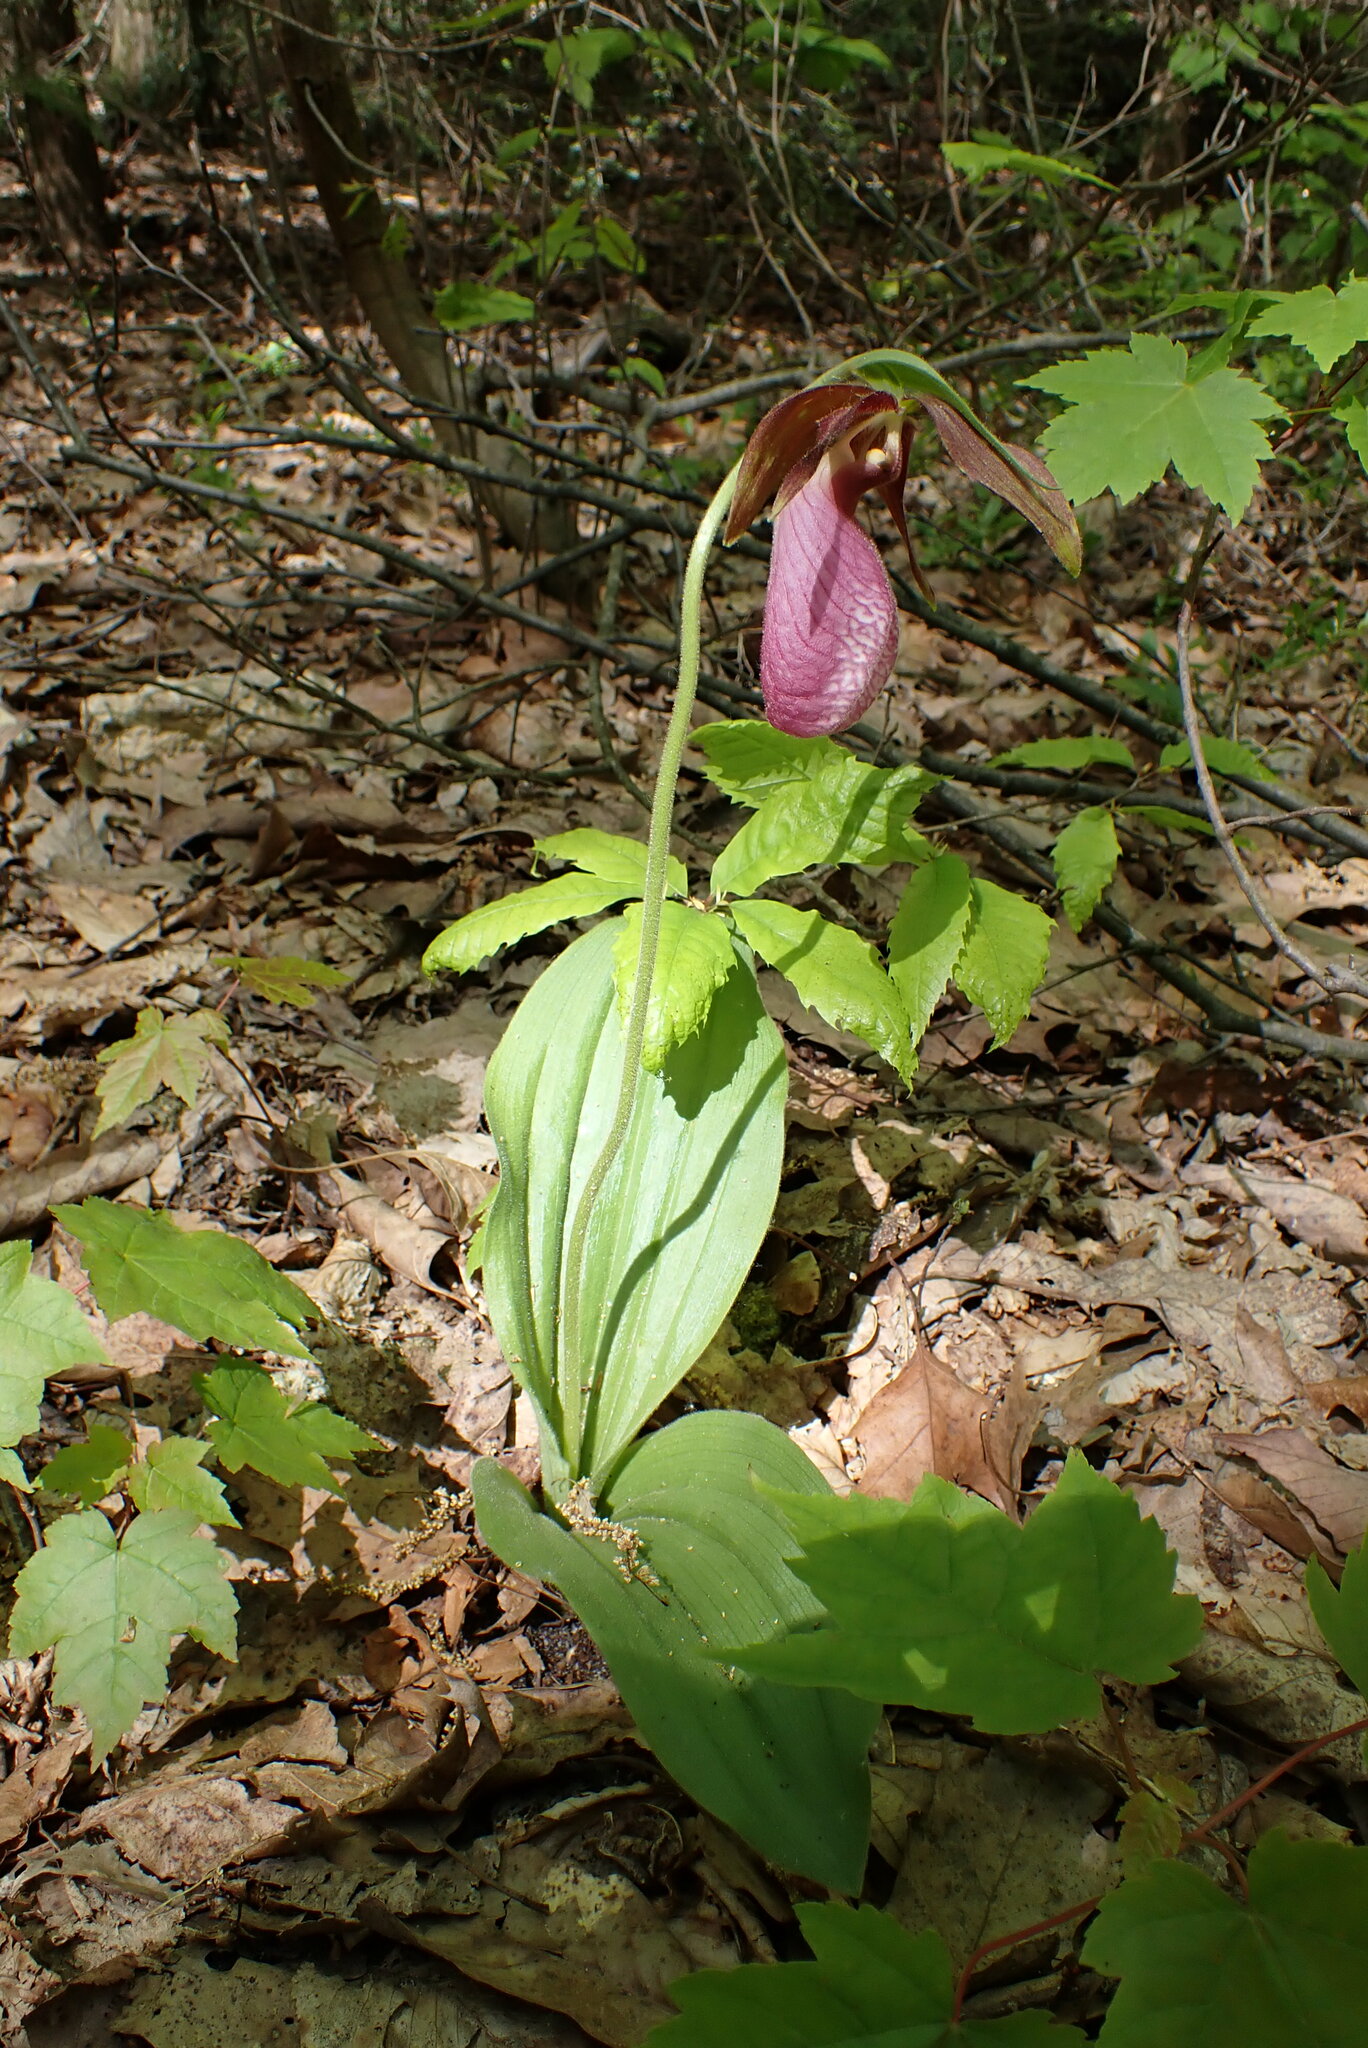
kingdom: Plantae
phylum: Tracheophyta
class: Liliopsida
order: Asparagales
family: Orchidaceae
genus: Cypripedium
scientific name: Cypripedium acaule
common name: Pink lady's-slipper
